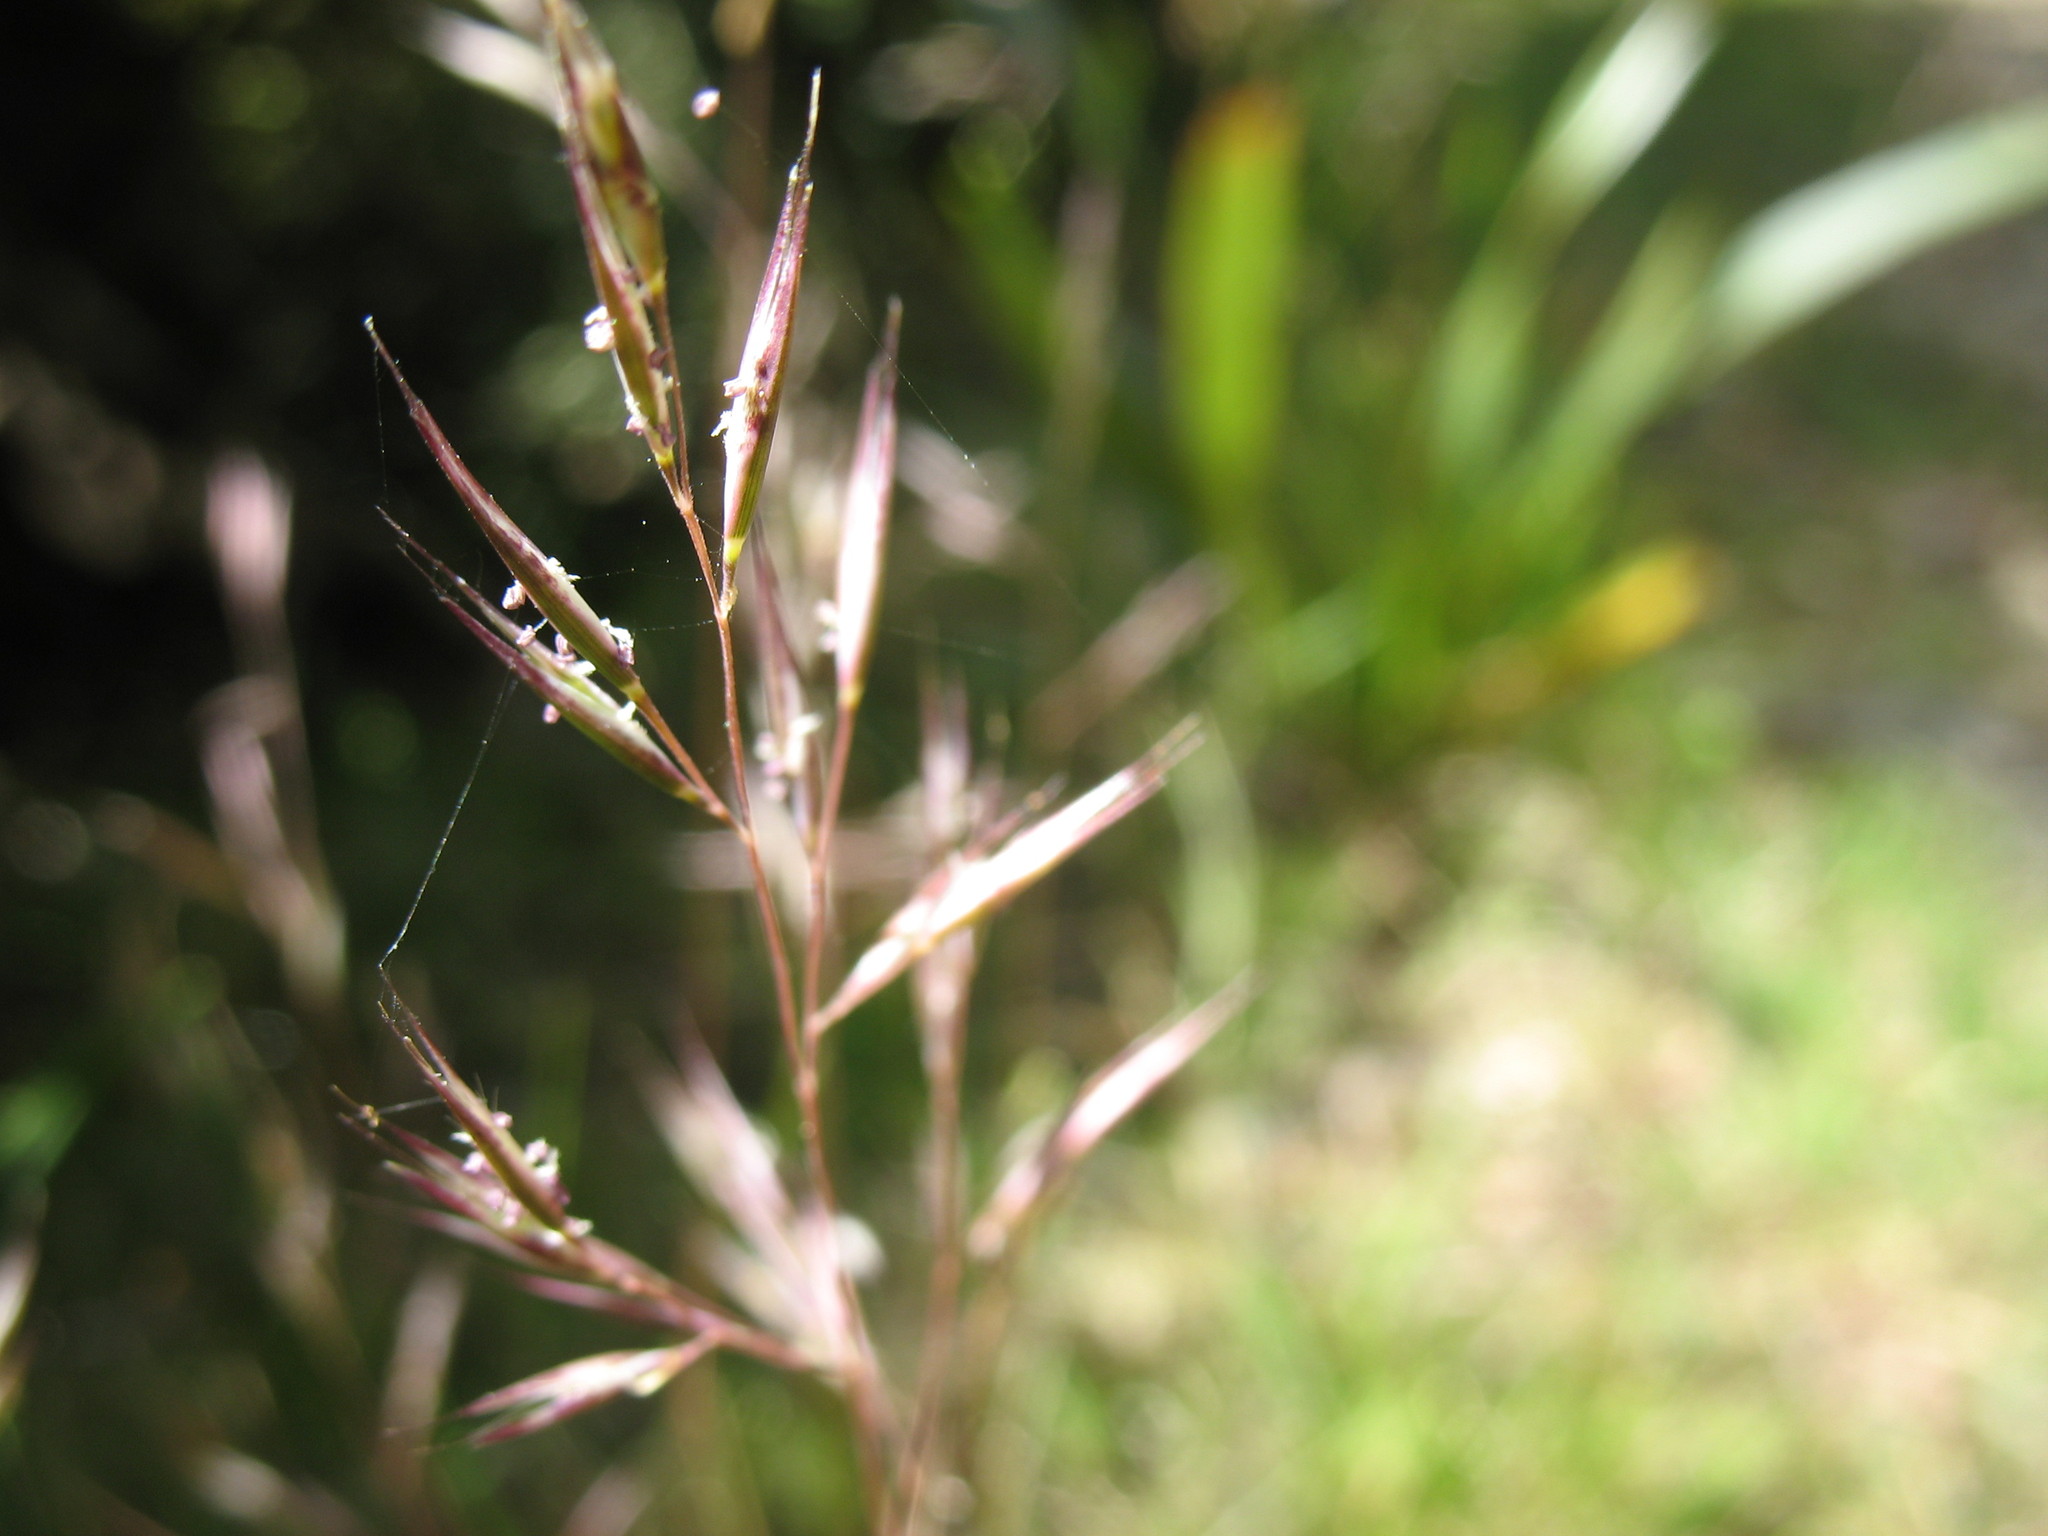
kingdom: Plantae
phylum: Tracheophyta
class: Liliopsida
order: Poales
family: Poaceae
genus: Rytidosperma
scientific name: Rytidosperma gracile
